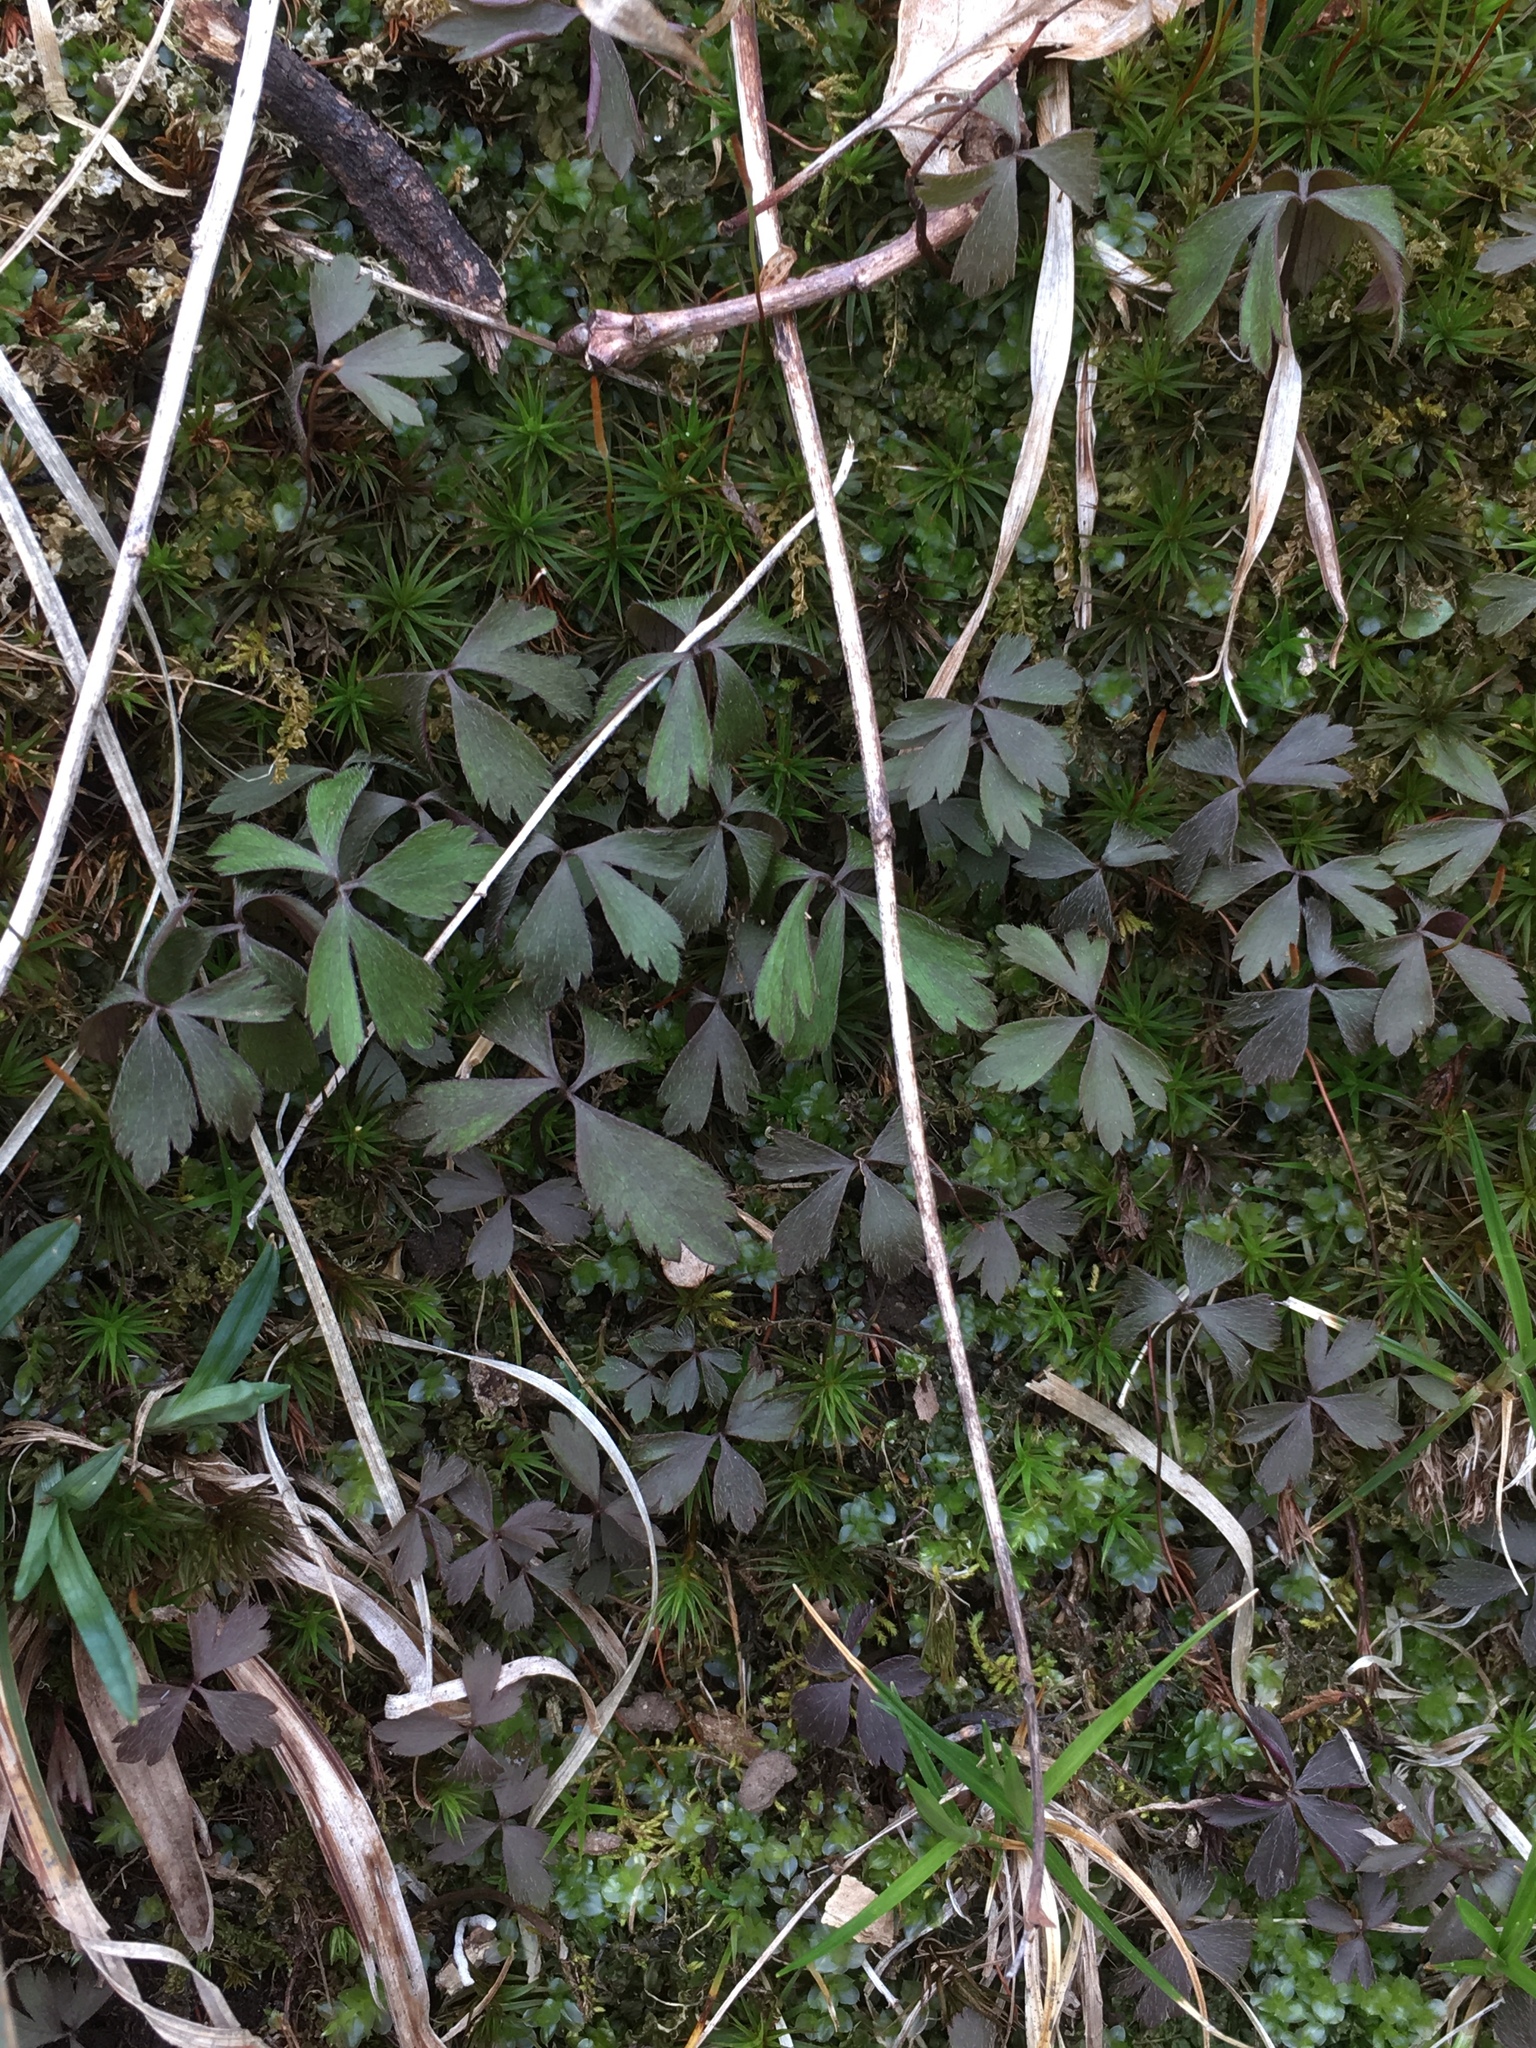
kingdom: Plantae
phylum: Tracheophyta
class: Magnoliopsida
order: Ranunculales
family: Ranunculaceae
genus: Anemone
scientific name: Anemone quinquefolia
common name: Wood anemone
